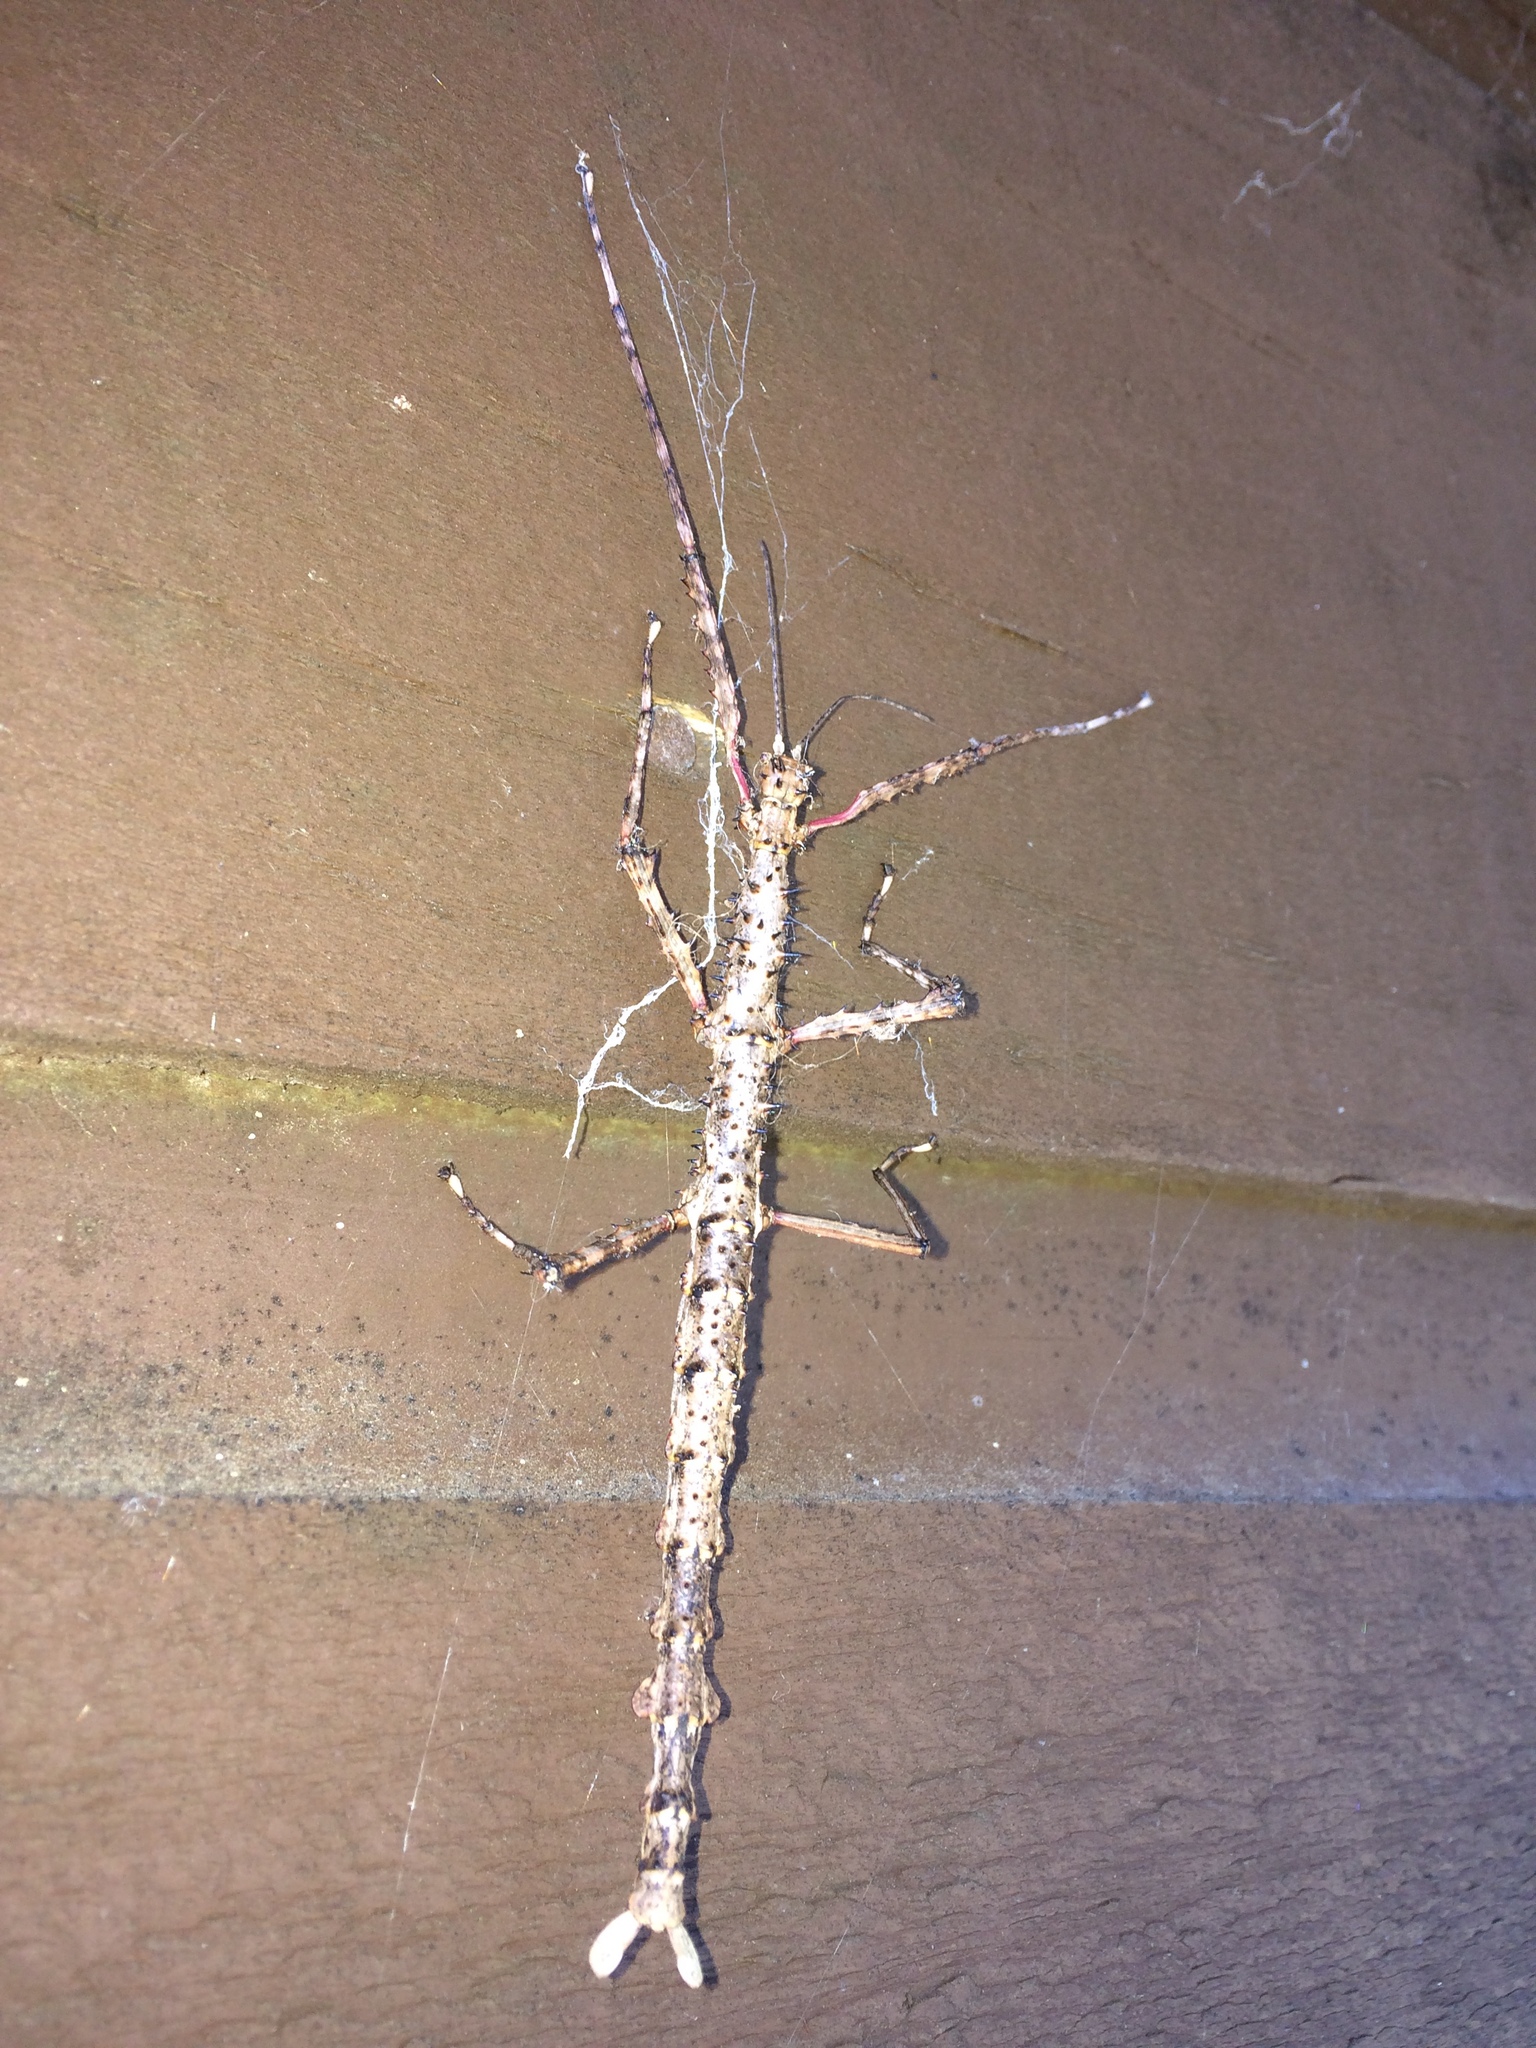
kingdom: Animalia
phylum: Arthropoda
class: Insecta
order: Phasmida
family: Phasmatidae
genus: Acanthoxyla
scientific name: Acanthoxyla geisovii
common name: Prickly stick insect
